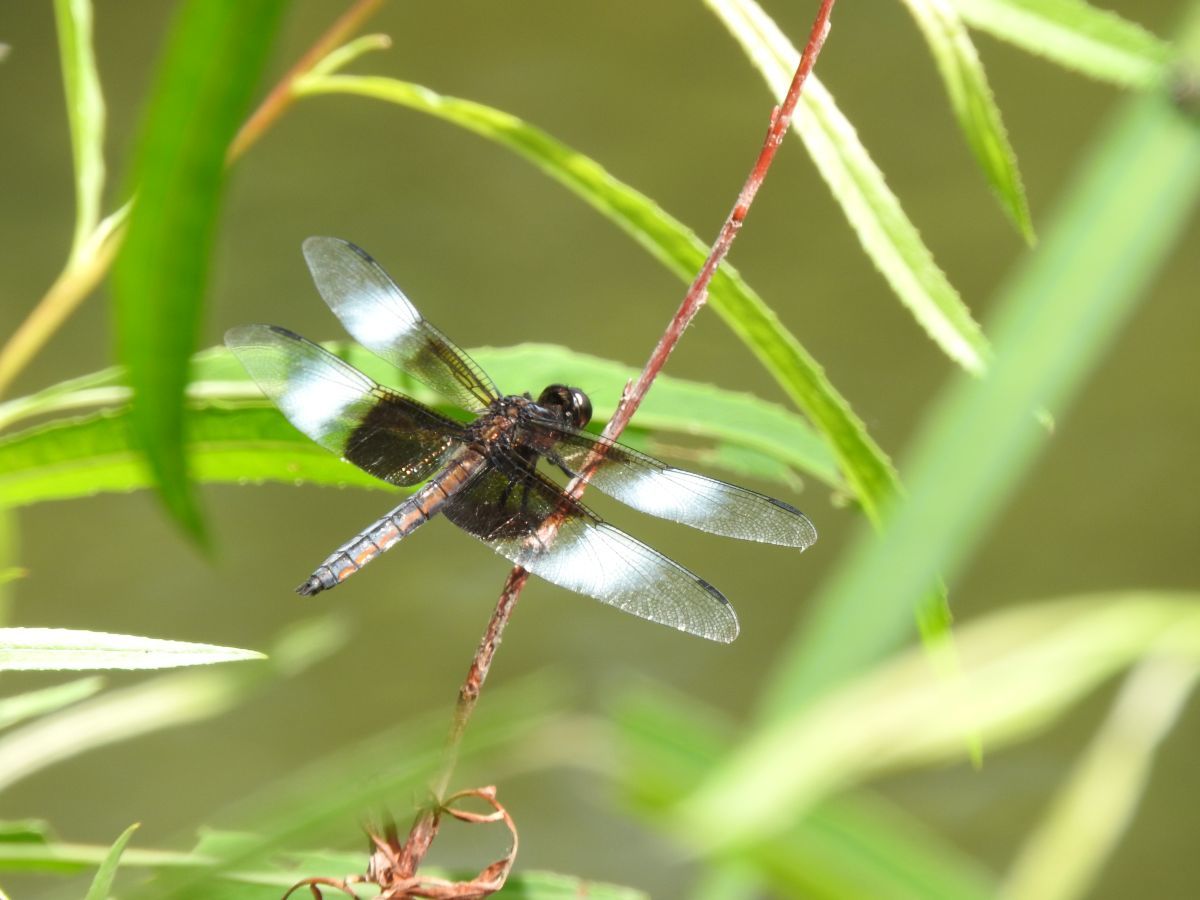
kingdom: Animalia
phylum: Arthropoda
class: Insecta
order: Odonata
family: Libellulidae
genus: Libellula
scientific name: Libellula luctuosa
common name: Widow skimmer
